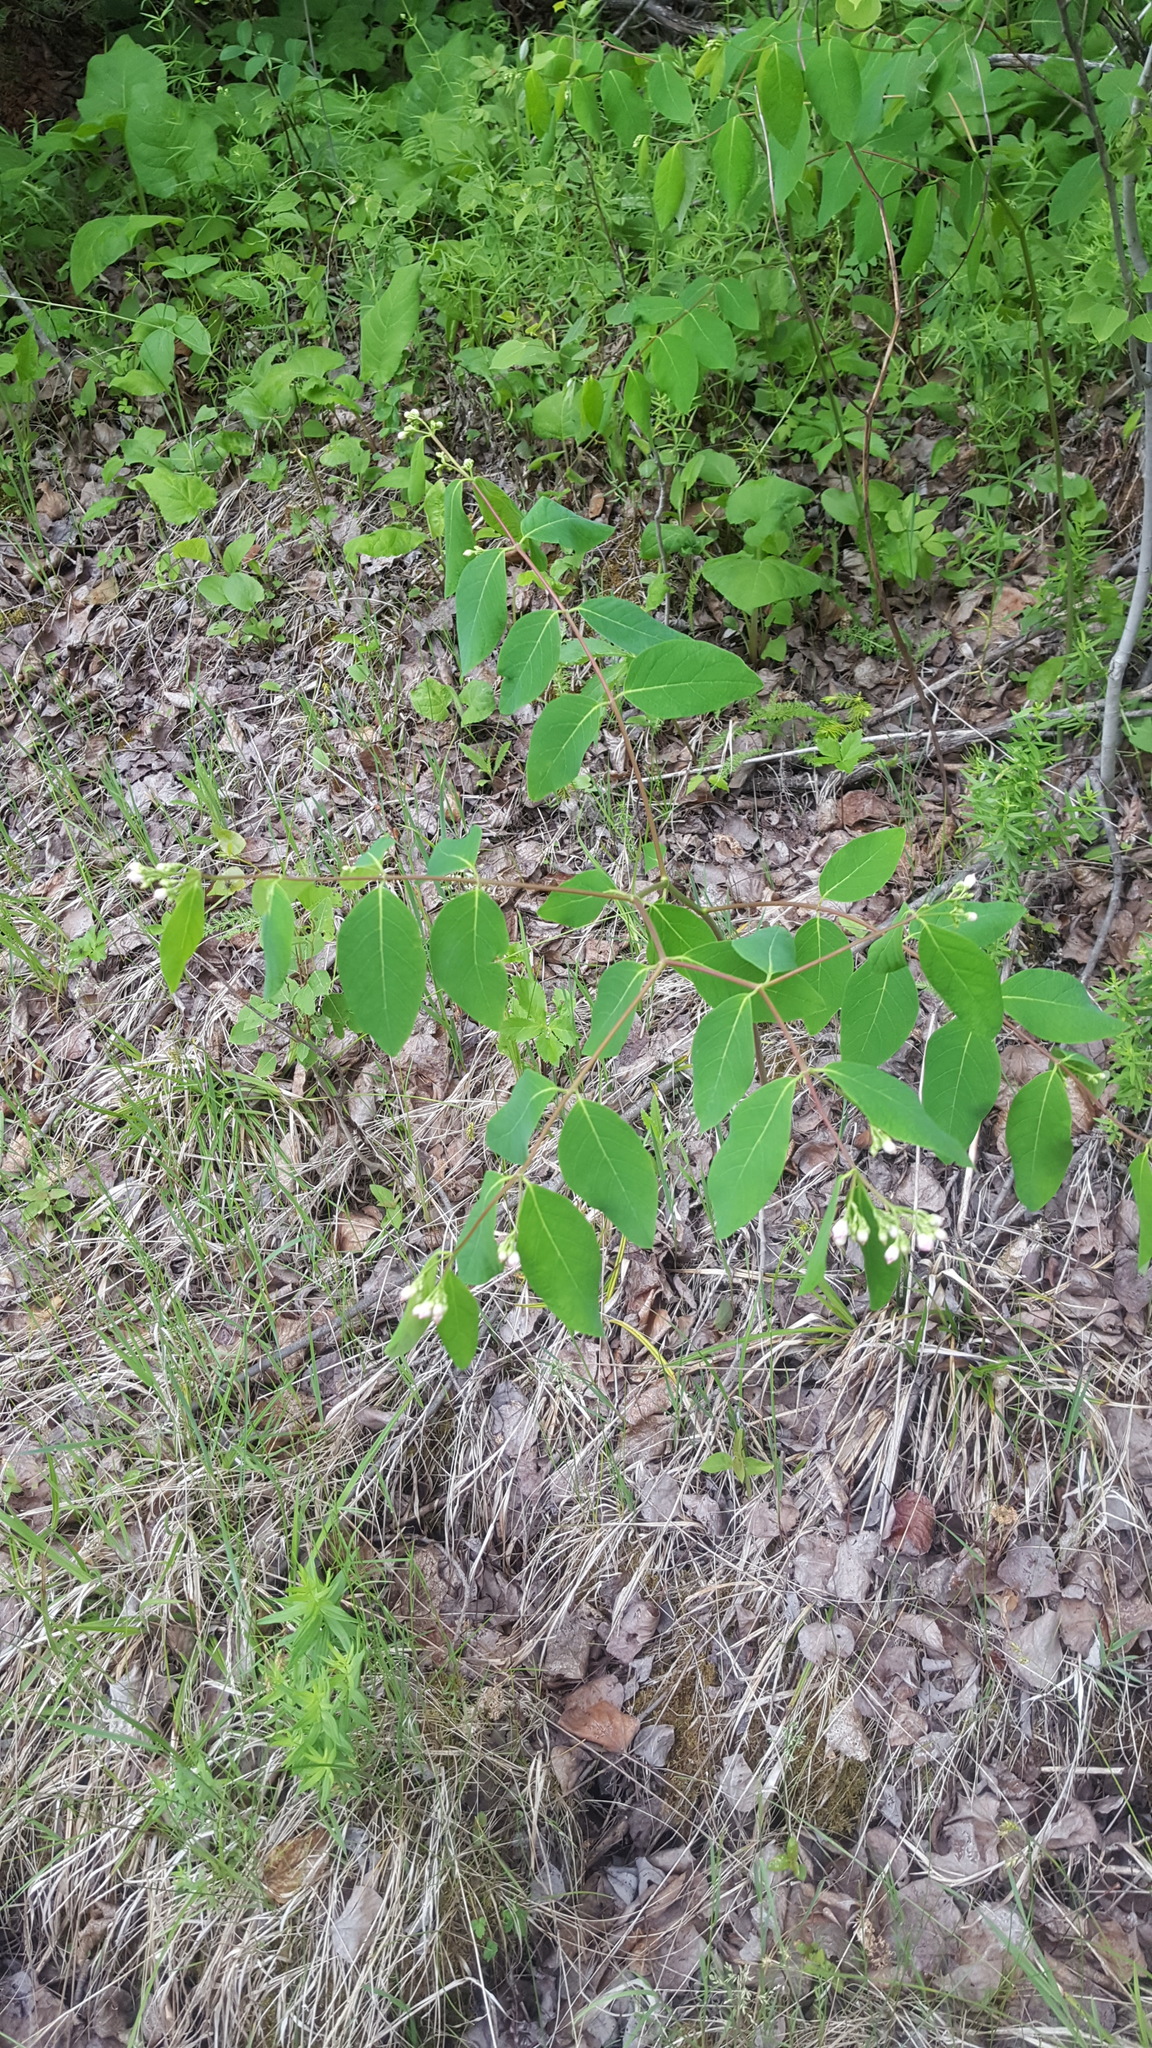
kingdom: Plantae
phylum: Tracheophyta
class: Magnoliopsida
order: Gentianales
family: Apocynaceae
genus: Apocynum
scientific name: Apocynum androsaemifolium
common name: Spreading dogbane
